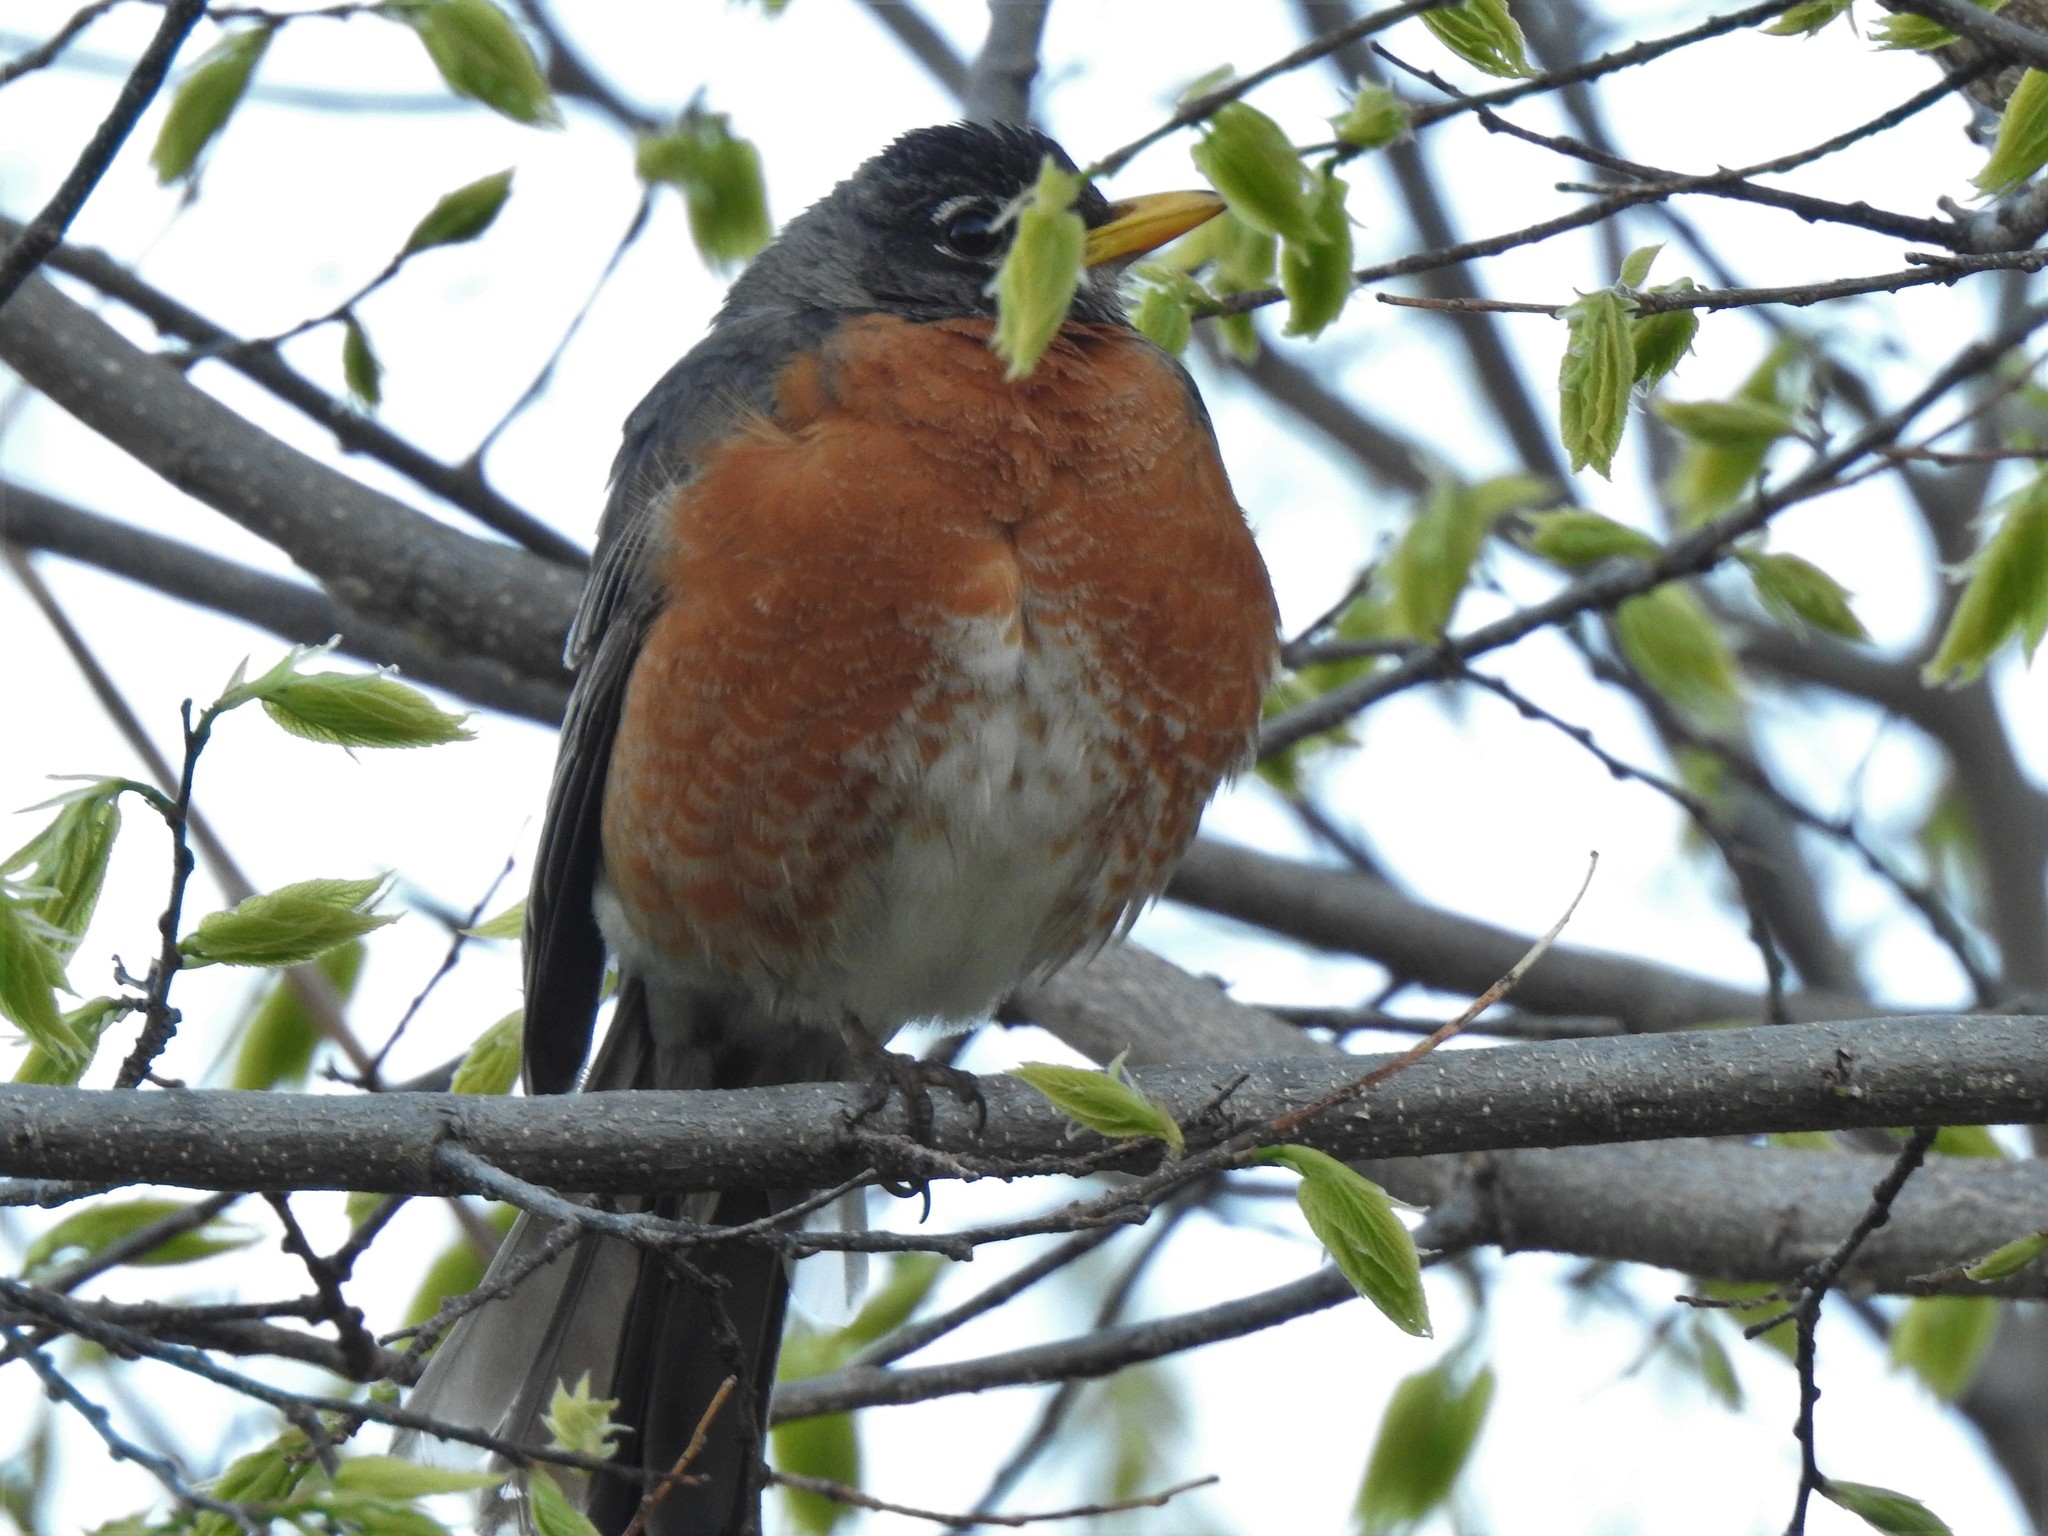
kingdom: Animalia
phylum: Chordata
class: Aves
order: Passeriformes
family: Turdidae
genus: Turdus
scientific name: Turdus migratorius
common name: American robin
